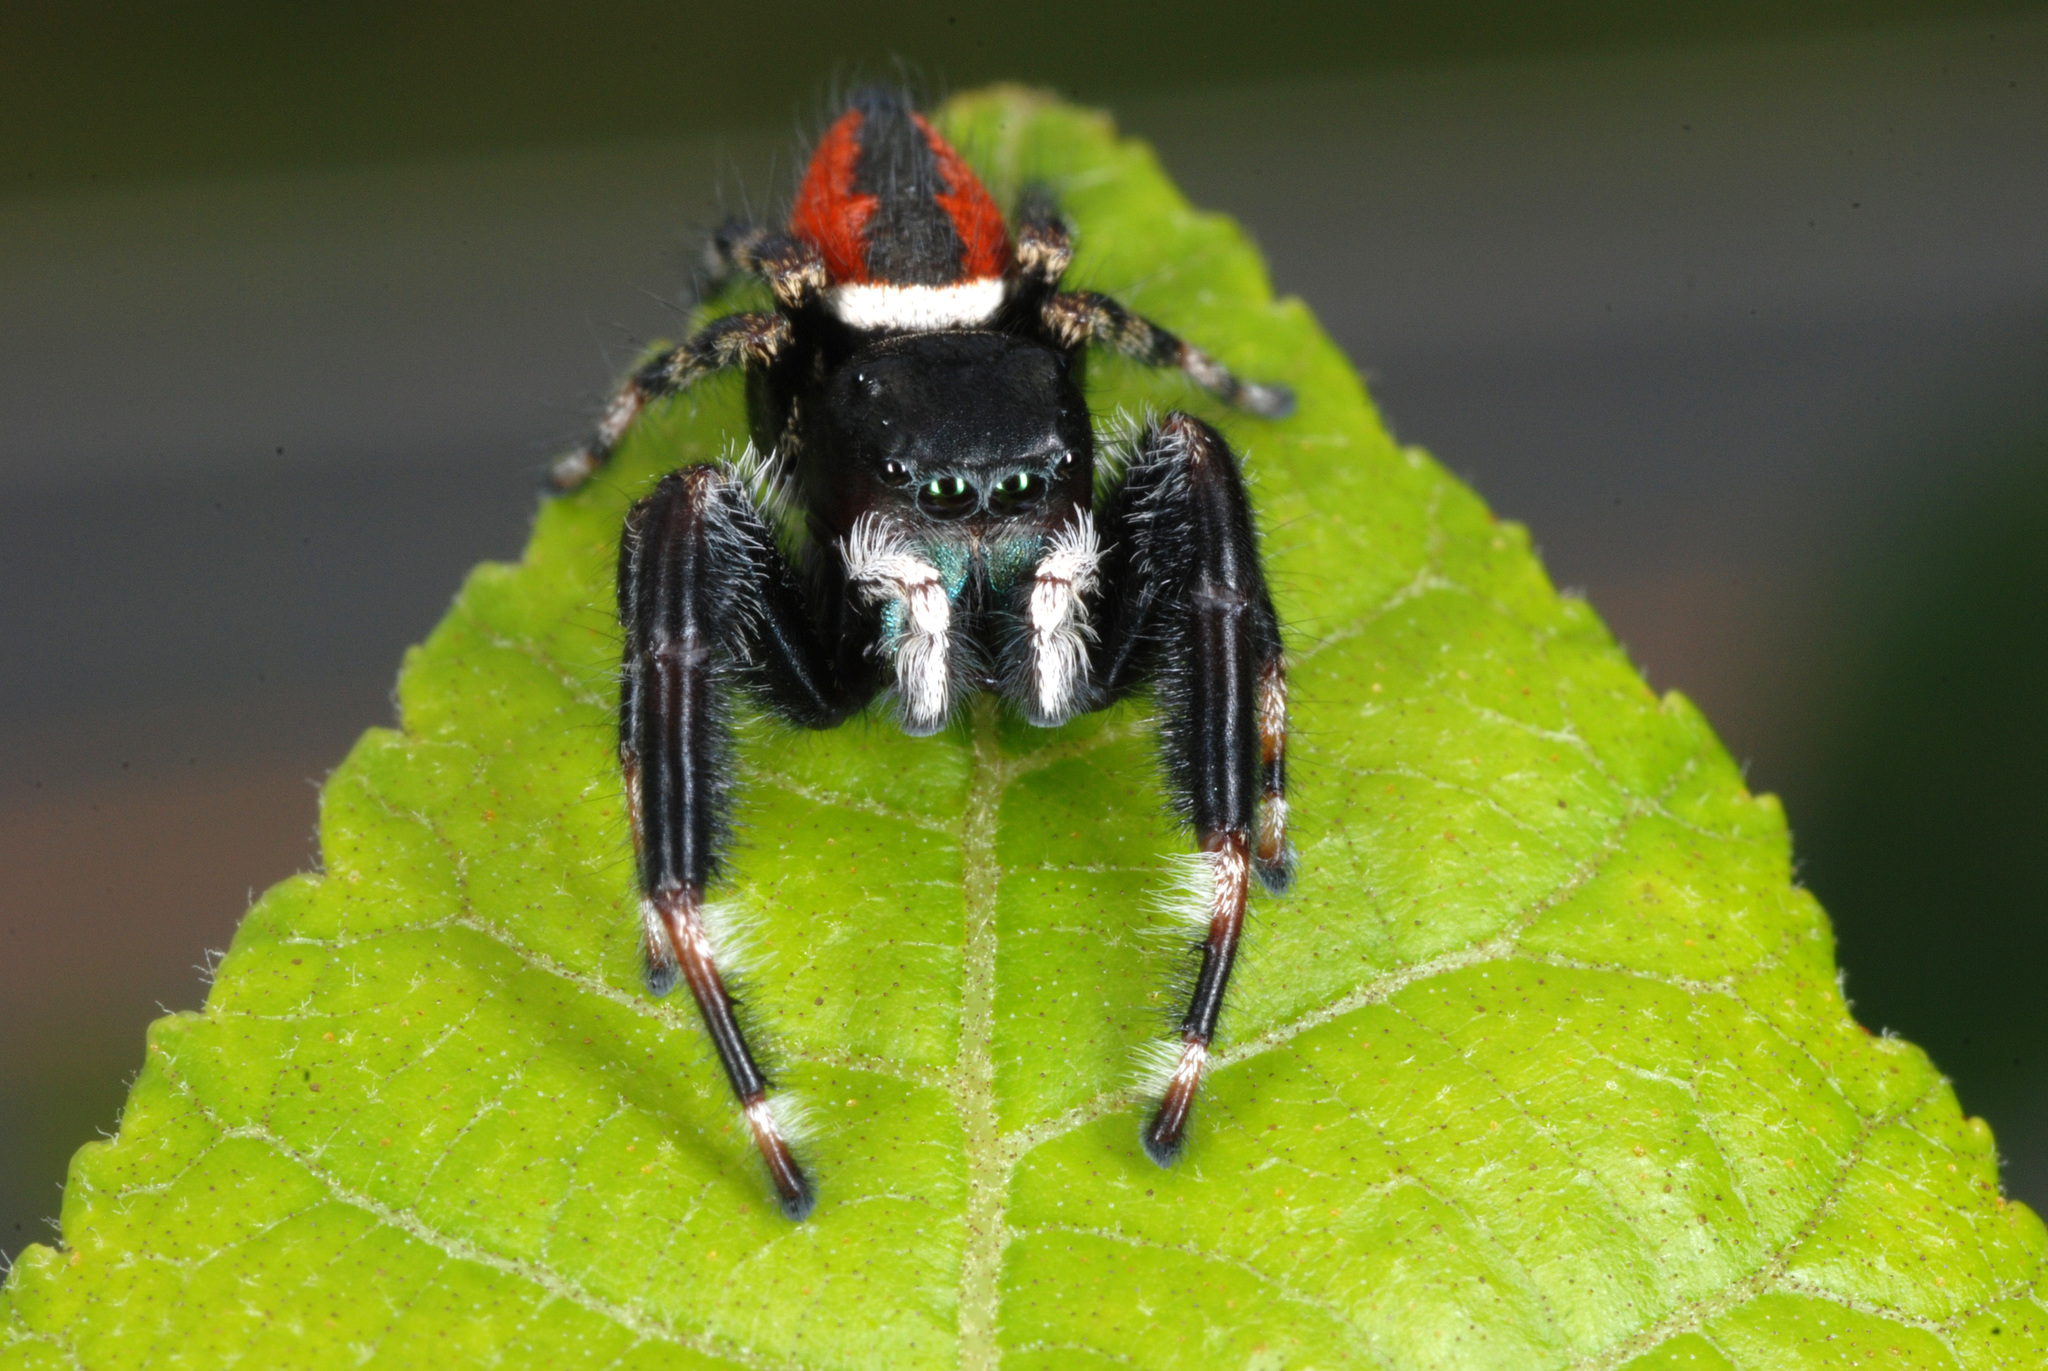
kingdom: Animalia
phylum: Arthropoda
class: Arachnida
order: Araneae
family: Salticidae
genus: Phidippus
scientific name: Phidippus clarus
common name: Brilliant jumping spider
